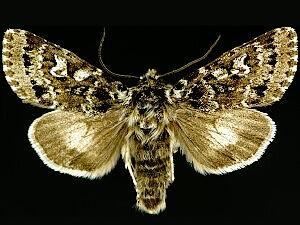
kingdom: Animalia
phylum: Arthropoda
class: Insecta
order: Lepidoptera
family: Noctuidae
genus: Polia
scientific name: Polia richardsoni
